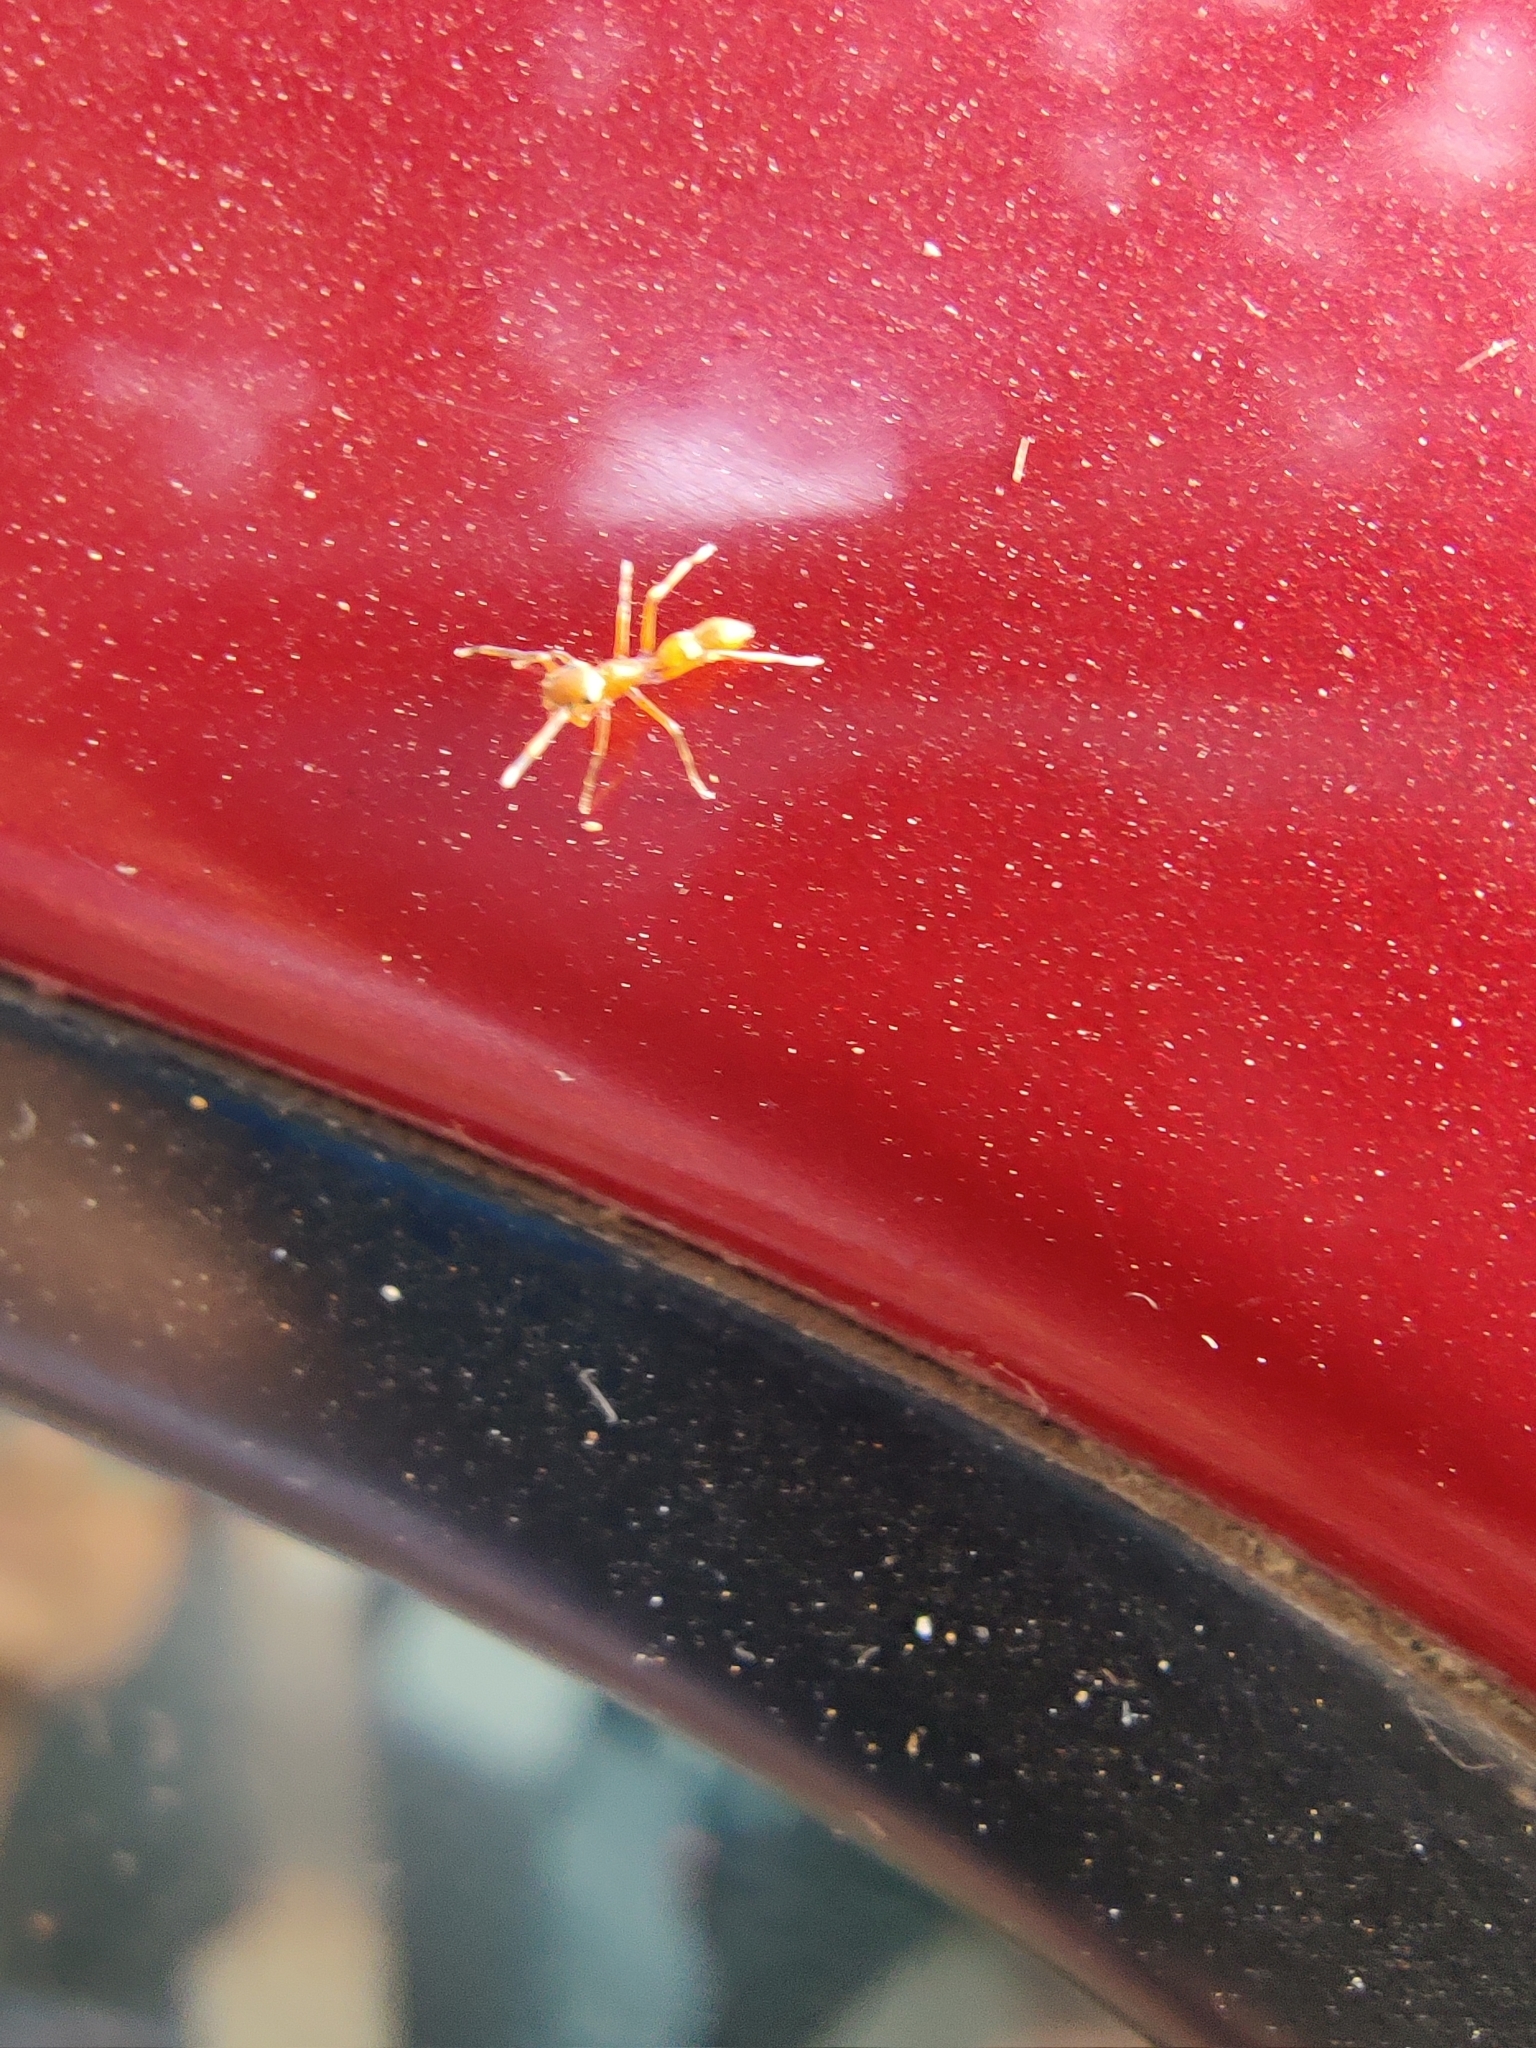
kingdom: Animalia
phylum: Arthropoda
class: Arachnida
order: Araneae
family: Salticidae
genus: Myrmaplata
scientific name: Myrmaplata plataleoides
